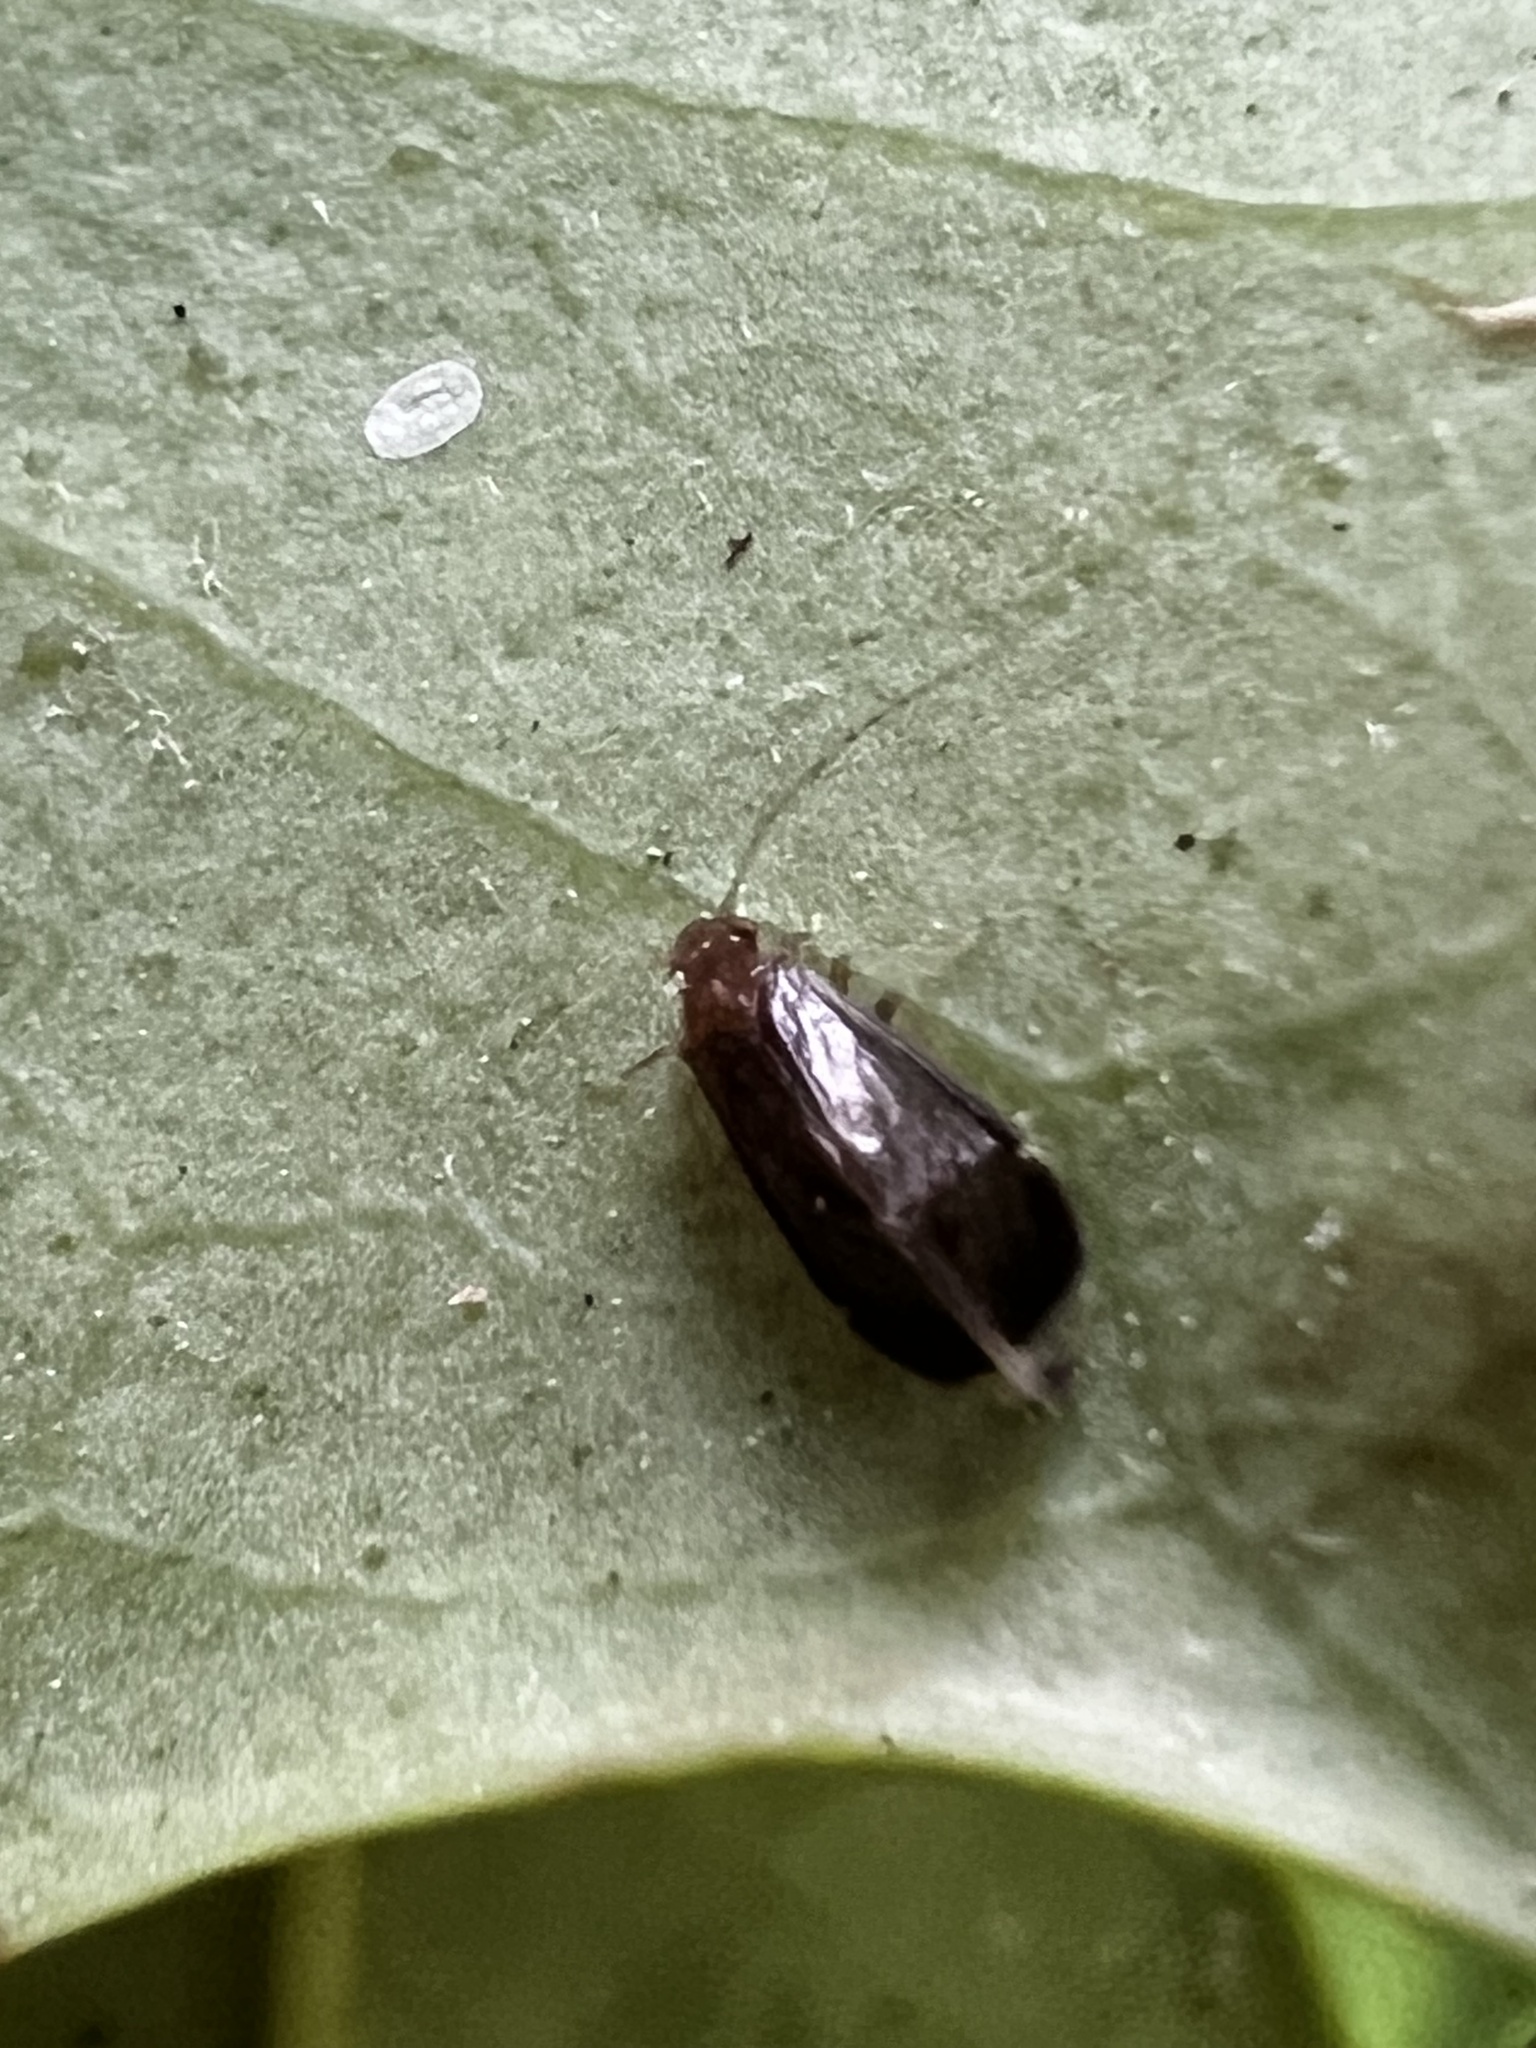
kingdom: Animalia
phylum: Arthropoda
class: Insecta
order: Psocodea
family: Amphipsocidae
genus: Polypsocus
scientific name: Polypsocus corruptus
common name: Corrupt barklouse
